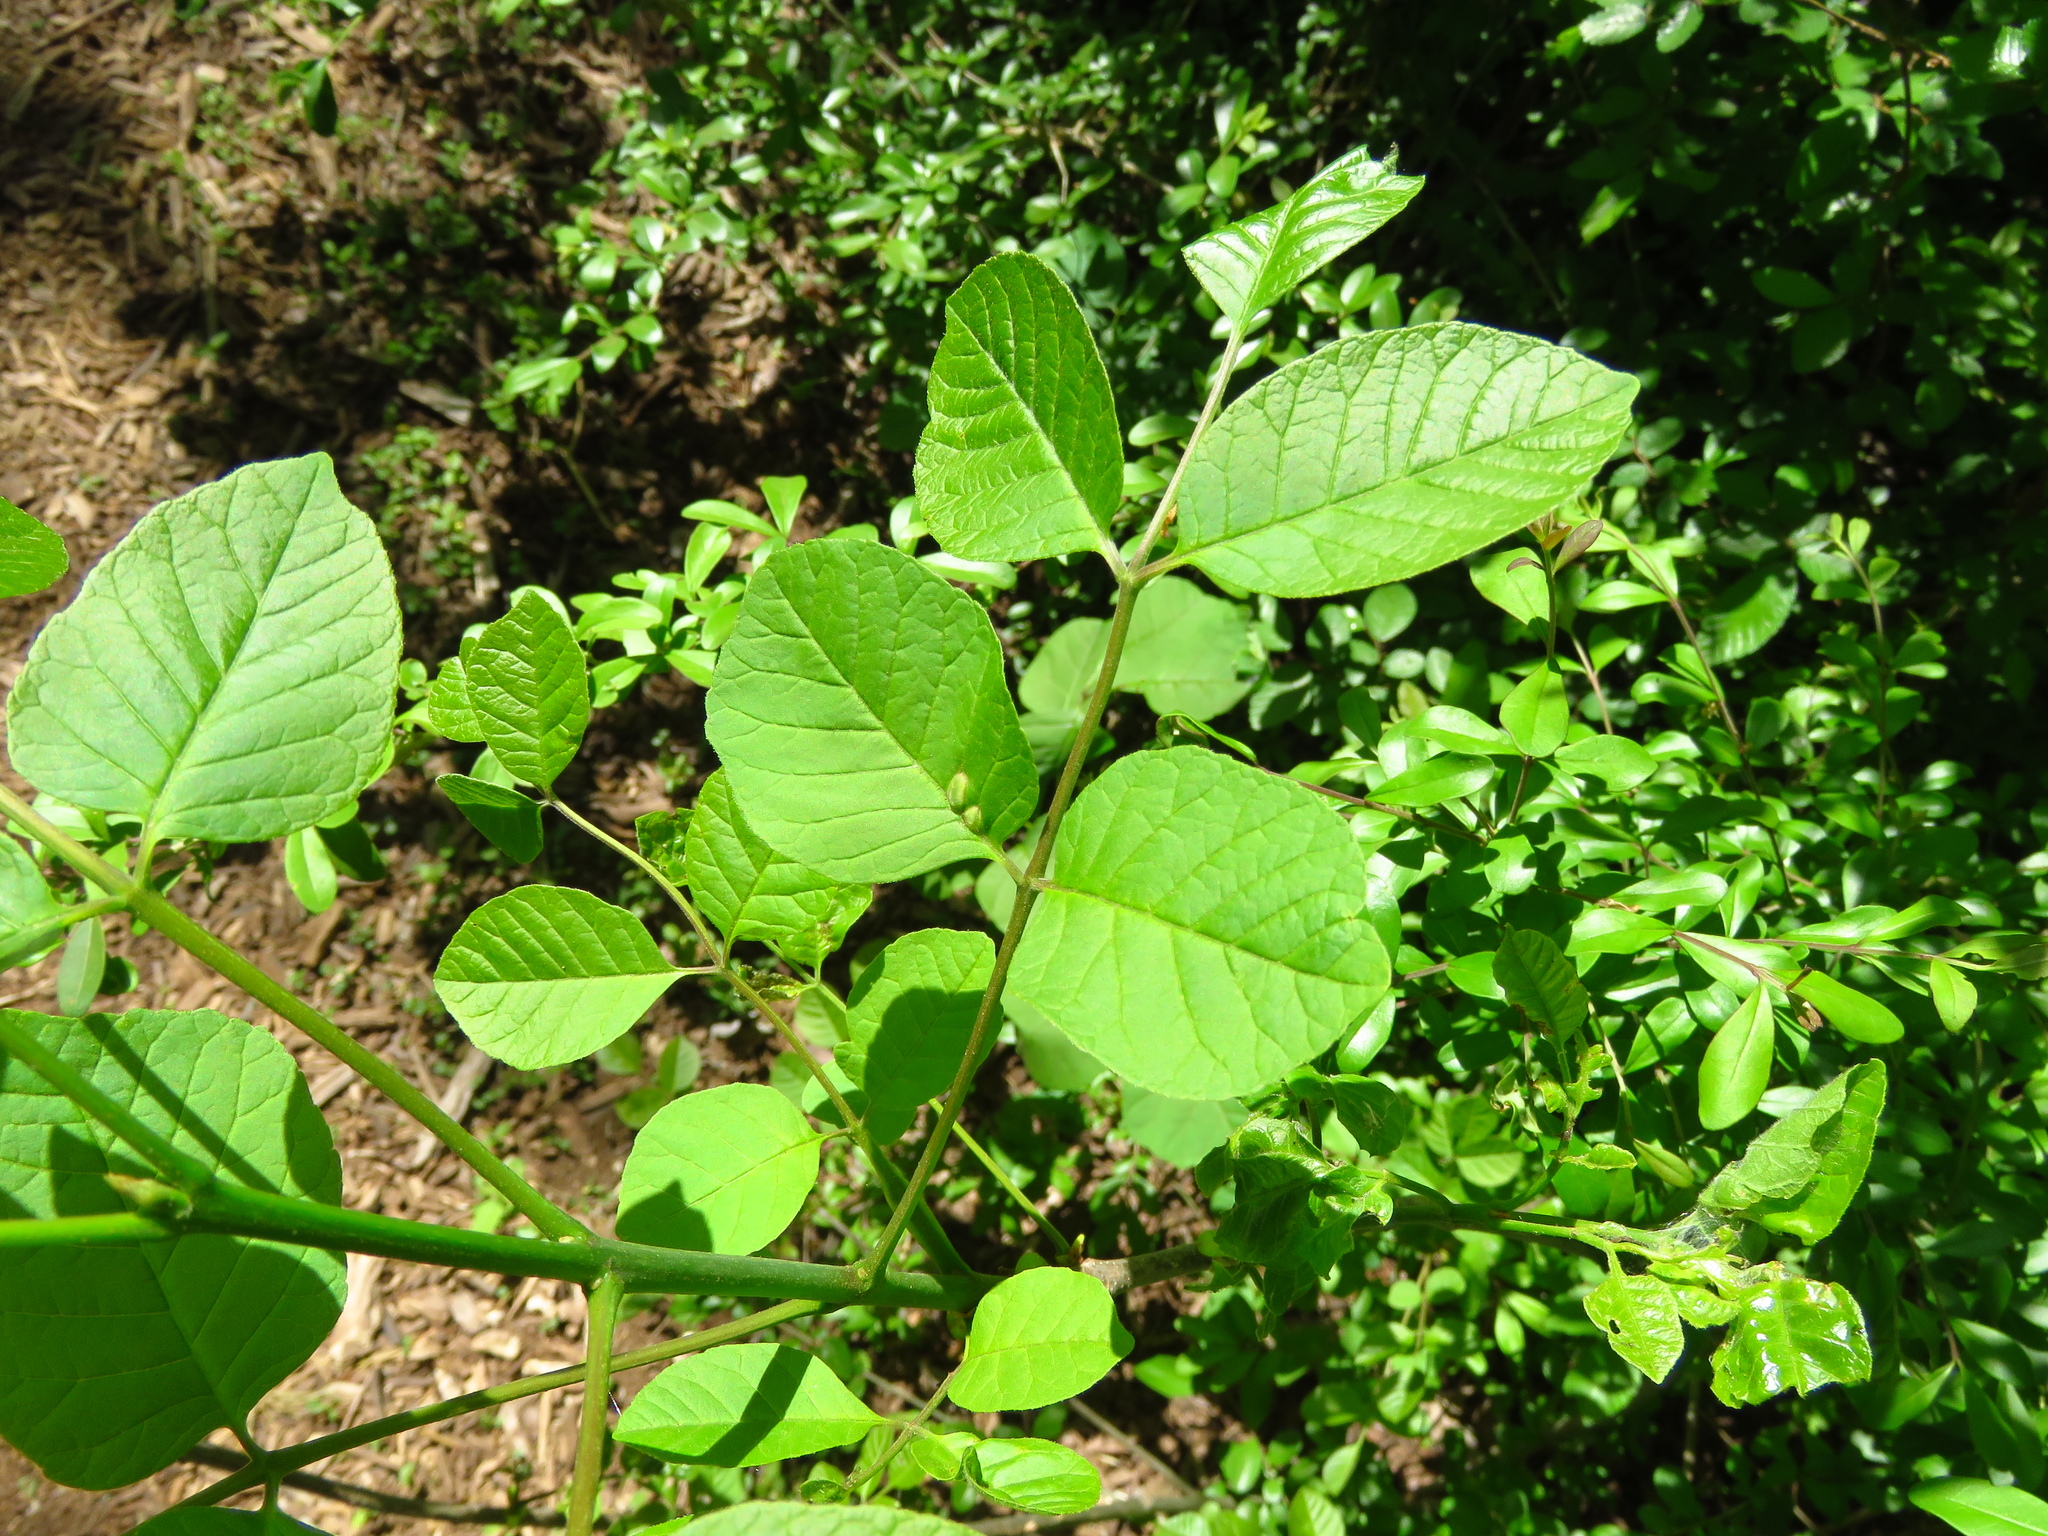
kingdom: Plantae
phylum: Tracheophyta
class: Magnoliopsida
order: Lamiales
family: Oleaceae
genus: Fraxinus
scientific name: Fraxinus albicans
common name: Texas ash
